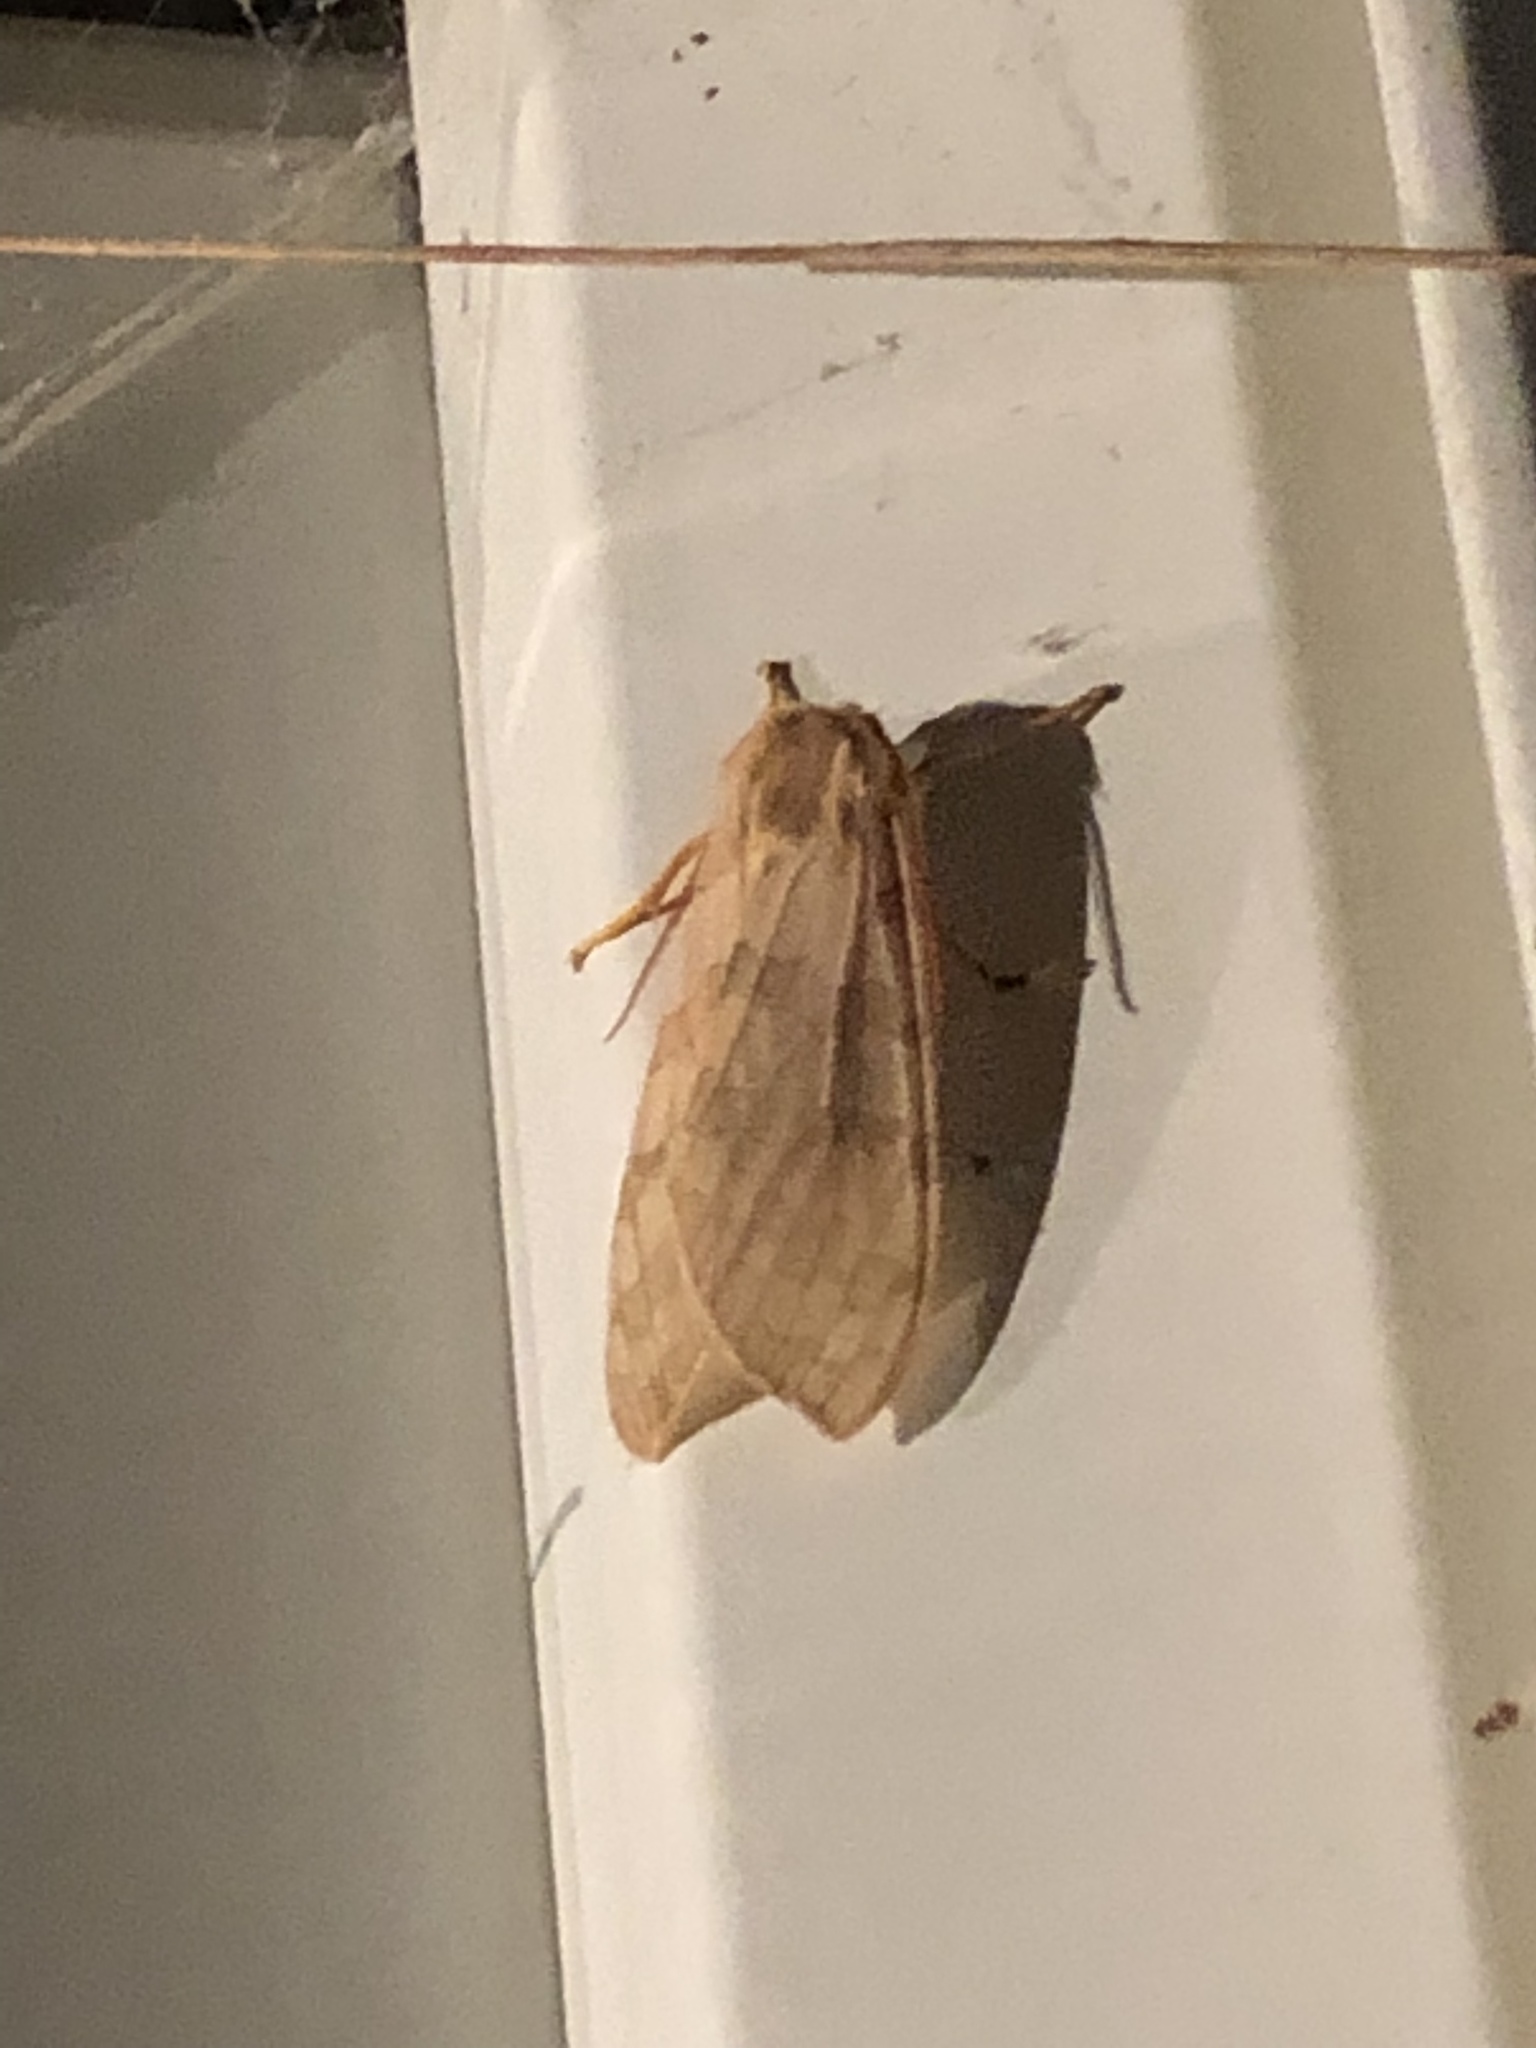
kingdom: Animalia
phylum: Arthropoda
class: Insecta
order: Lepidoptera
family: Erebidae
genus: Halysidota
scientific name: Halysidota
